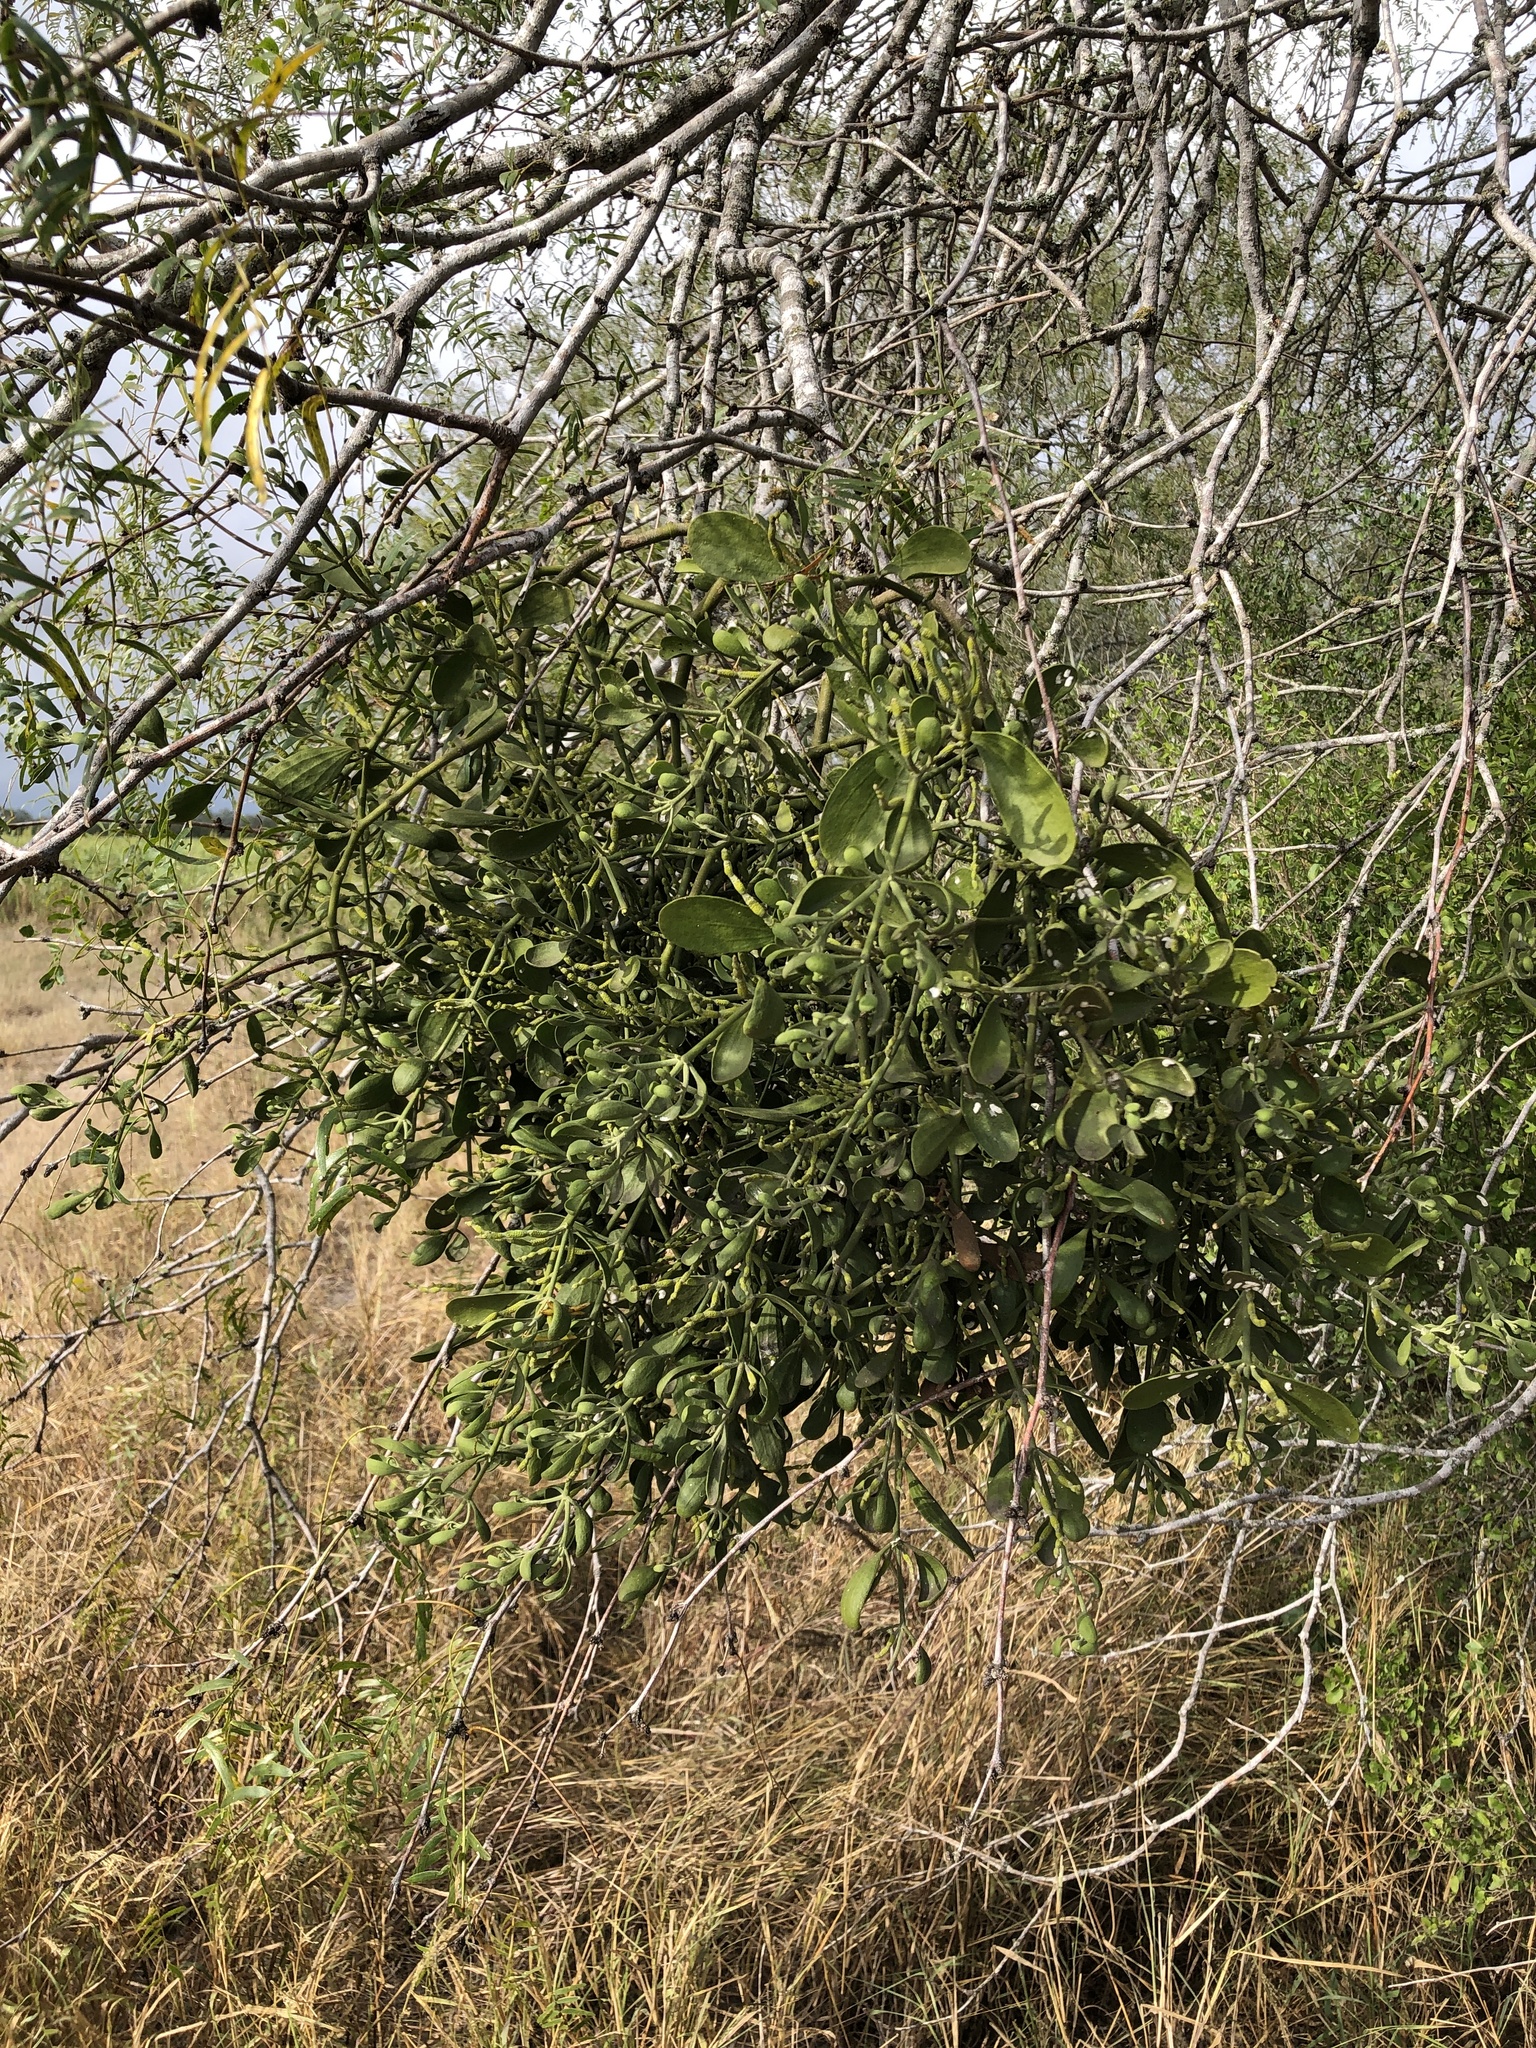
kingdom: Plantae
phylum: Tracheophyta
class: Magnoliopsida
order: Santalales
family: Viscaceae
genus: Phoradendron
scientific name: Phoradendron leucarpum
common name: Pacific mistletoe
